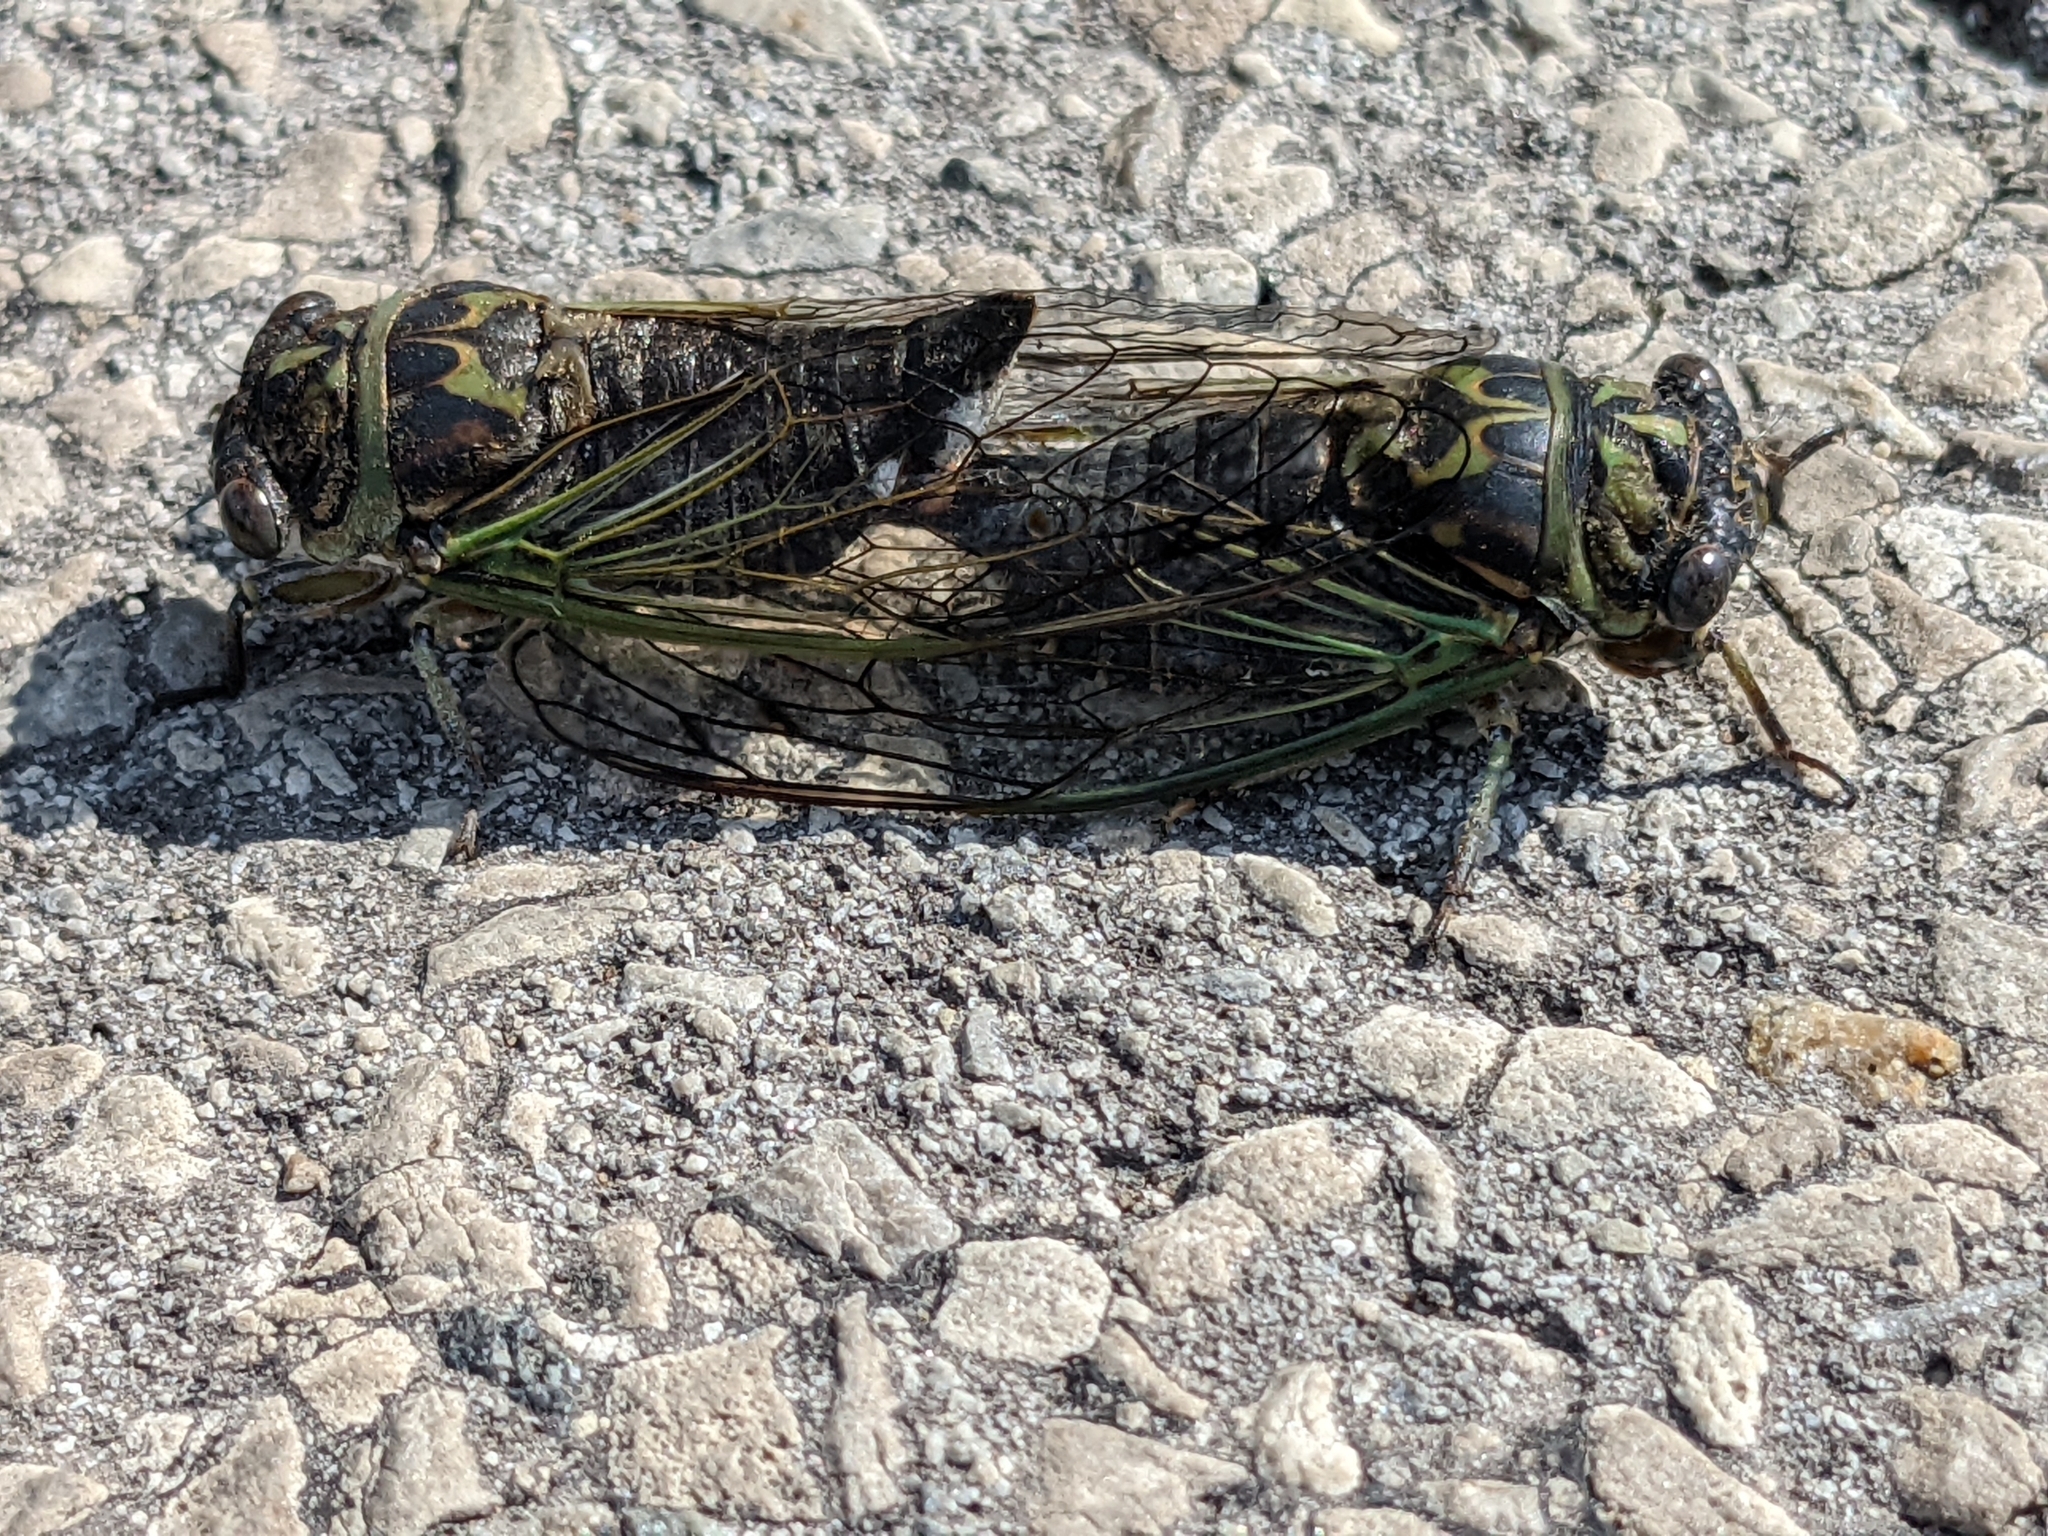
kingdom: Animalia
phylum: Arthropoda
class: Insecta
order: Hemiptera
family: Cicadidae
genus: Neotibicen
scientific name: Neotibicen canicularis
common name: God-day cicada
